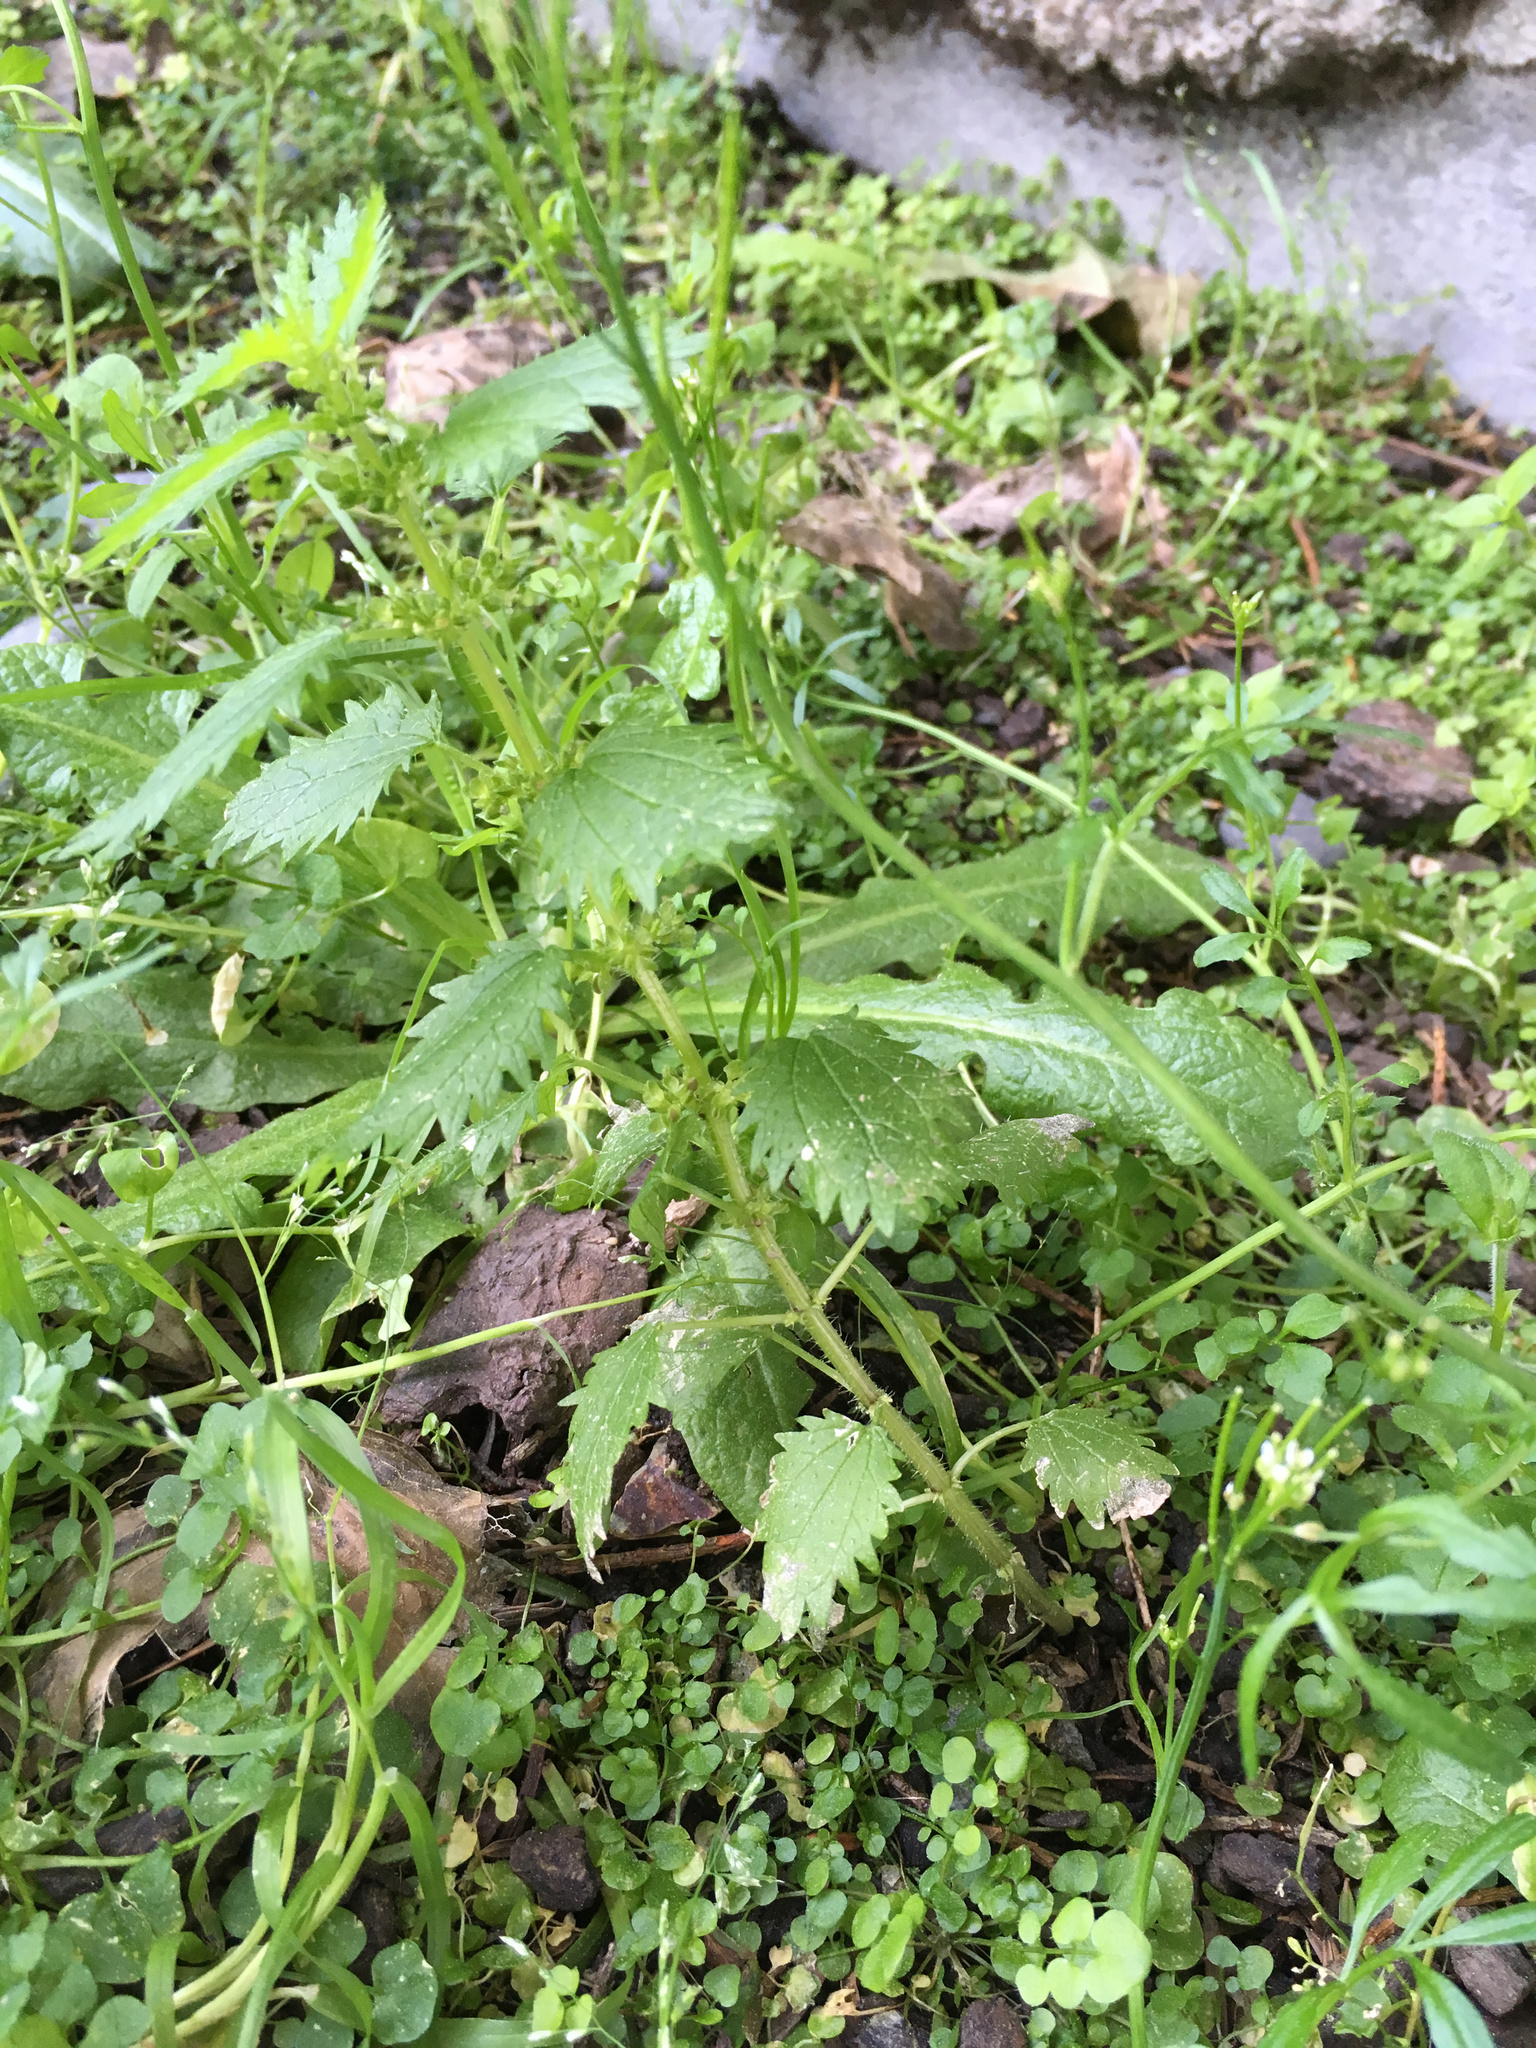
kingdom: Plantae
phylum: Tracheophyta
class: Magnoliopsida
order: Rosales
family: Urticaceae
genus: Urtica
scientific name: Urtica urens
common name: Dwarf nettle
